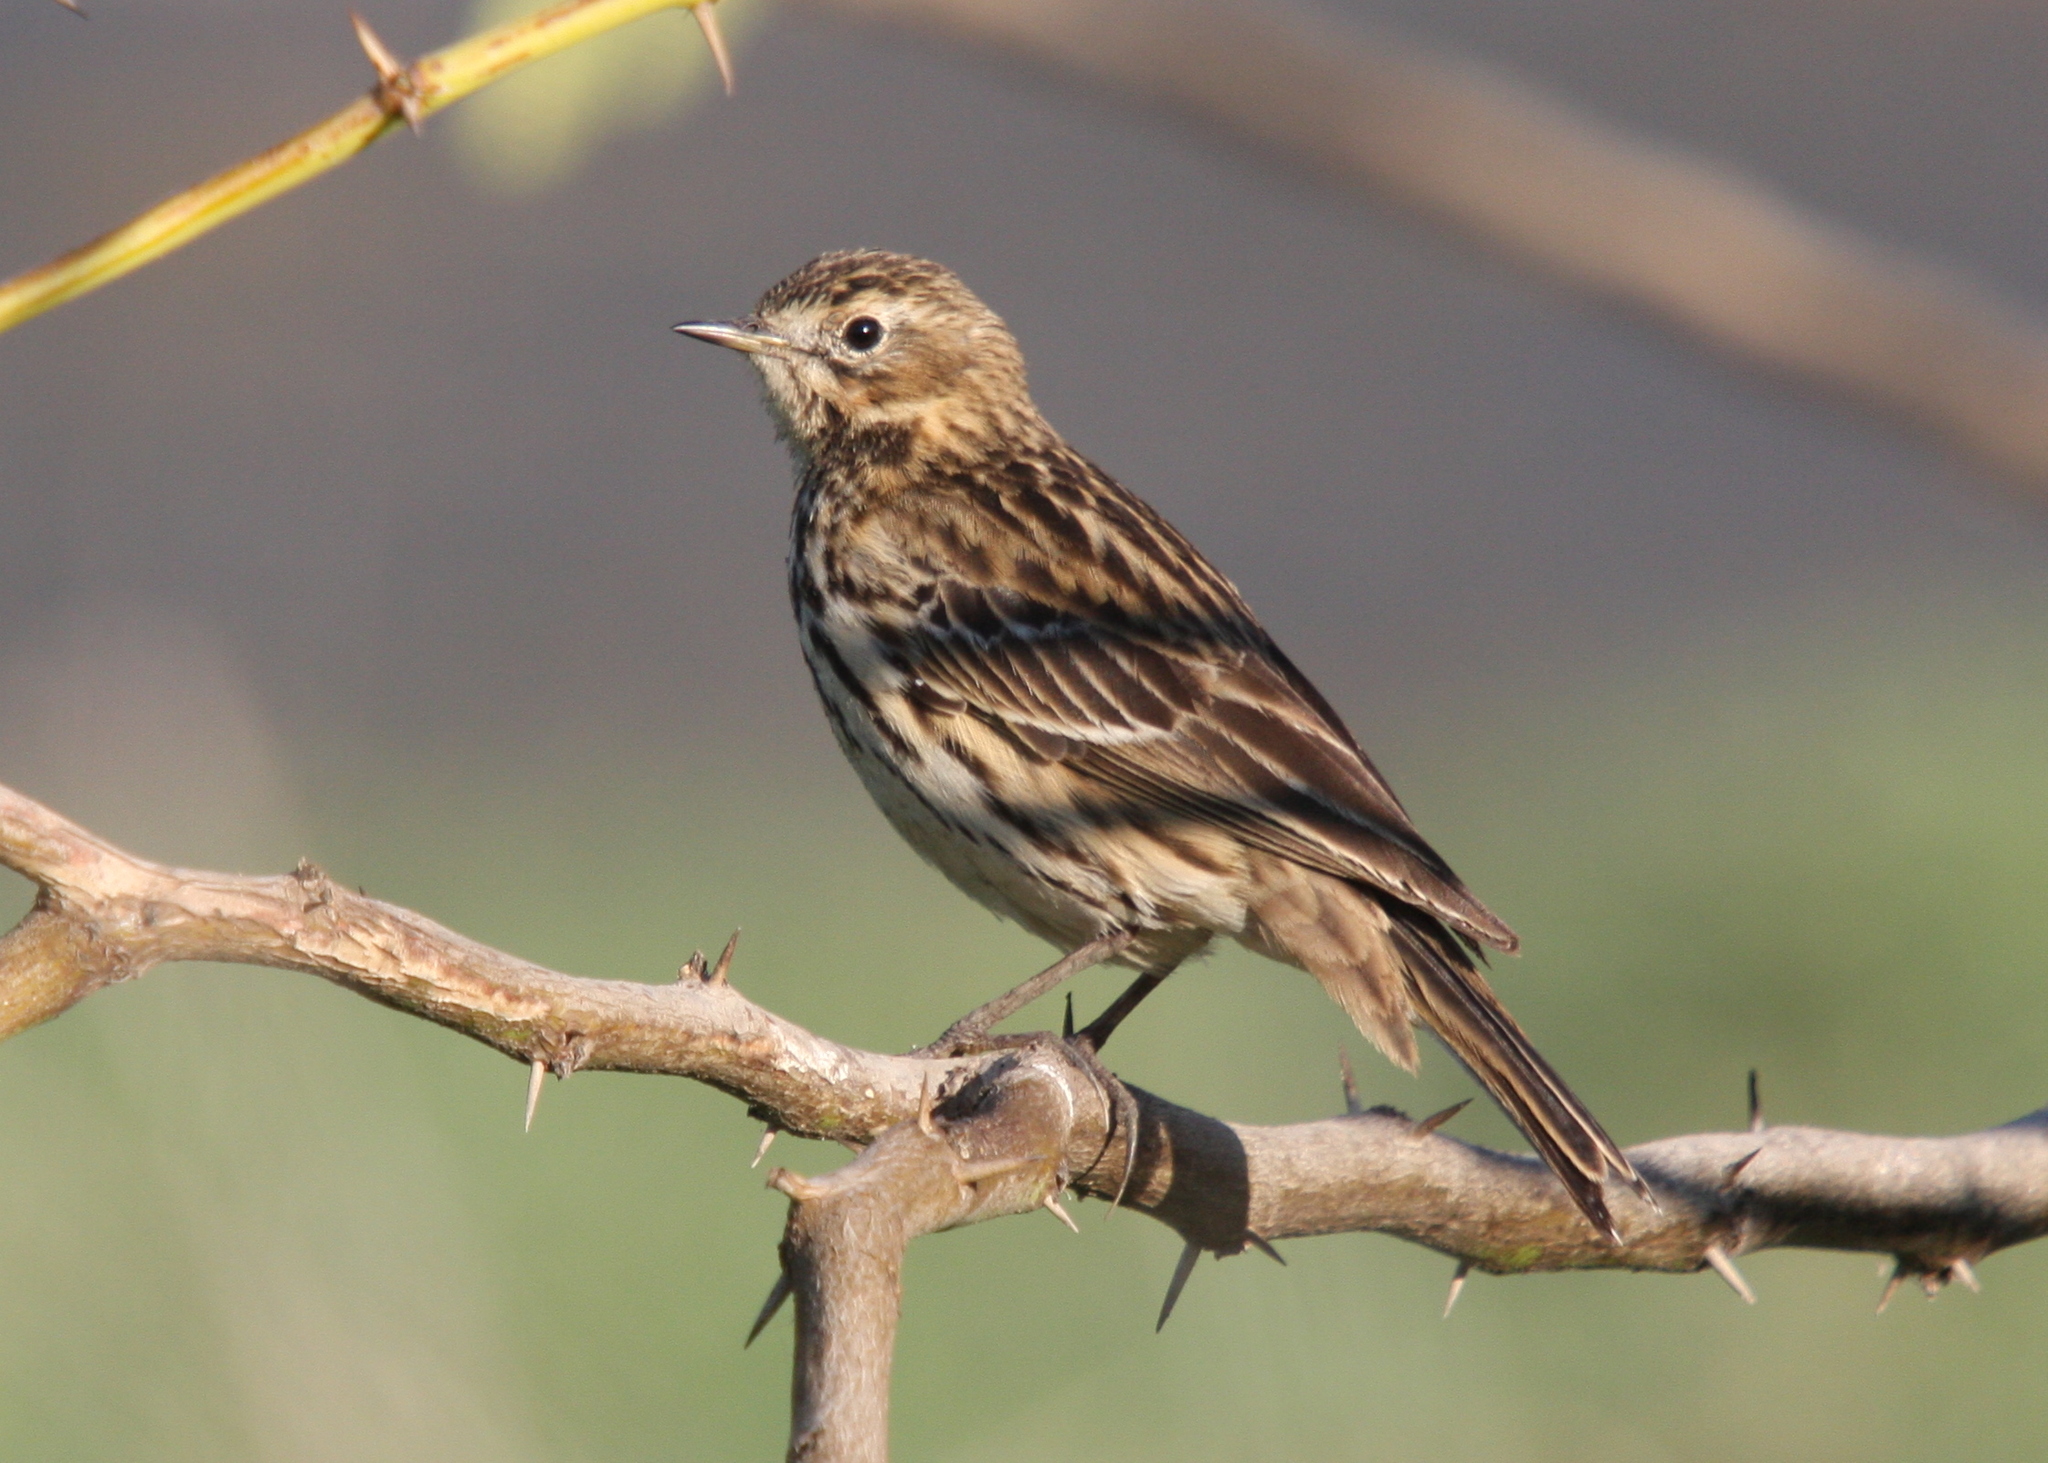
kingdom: Animalia
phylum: Chordata
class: Aves
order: Passeriformes
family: Motacillidae
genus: Anthus
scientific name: Anthus cervinus
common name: Red-throated pipit
